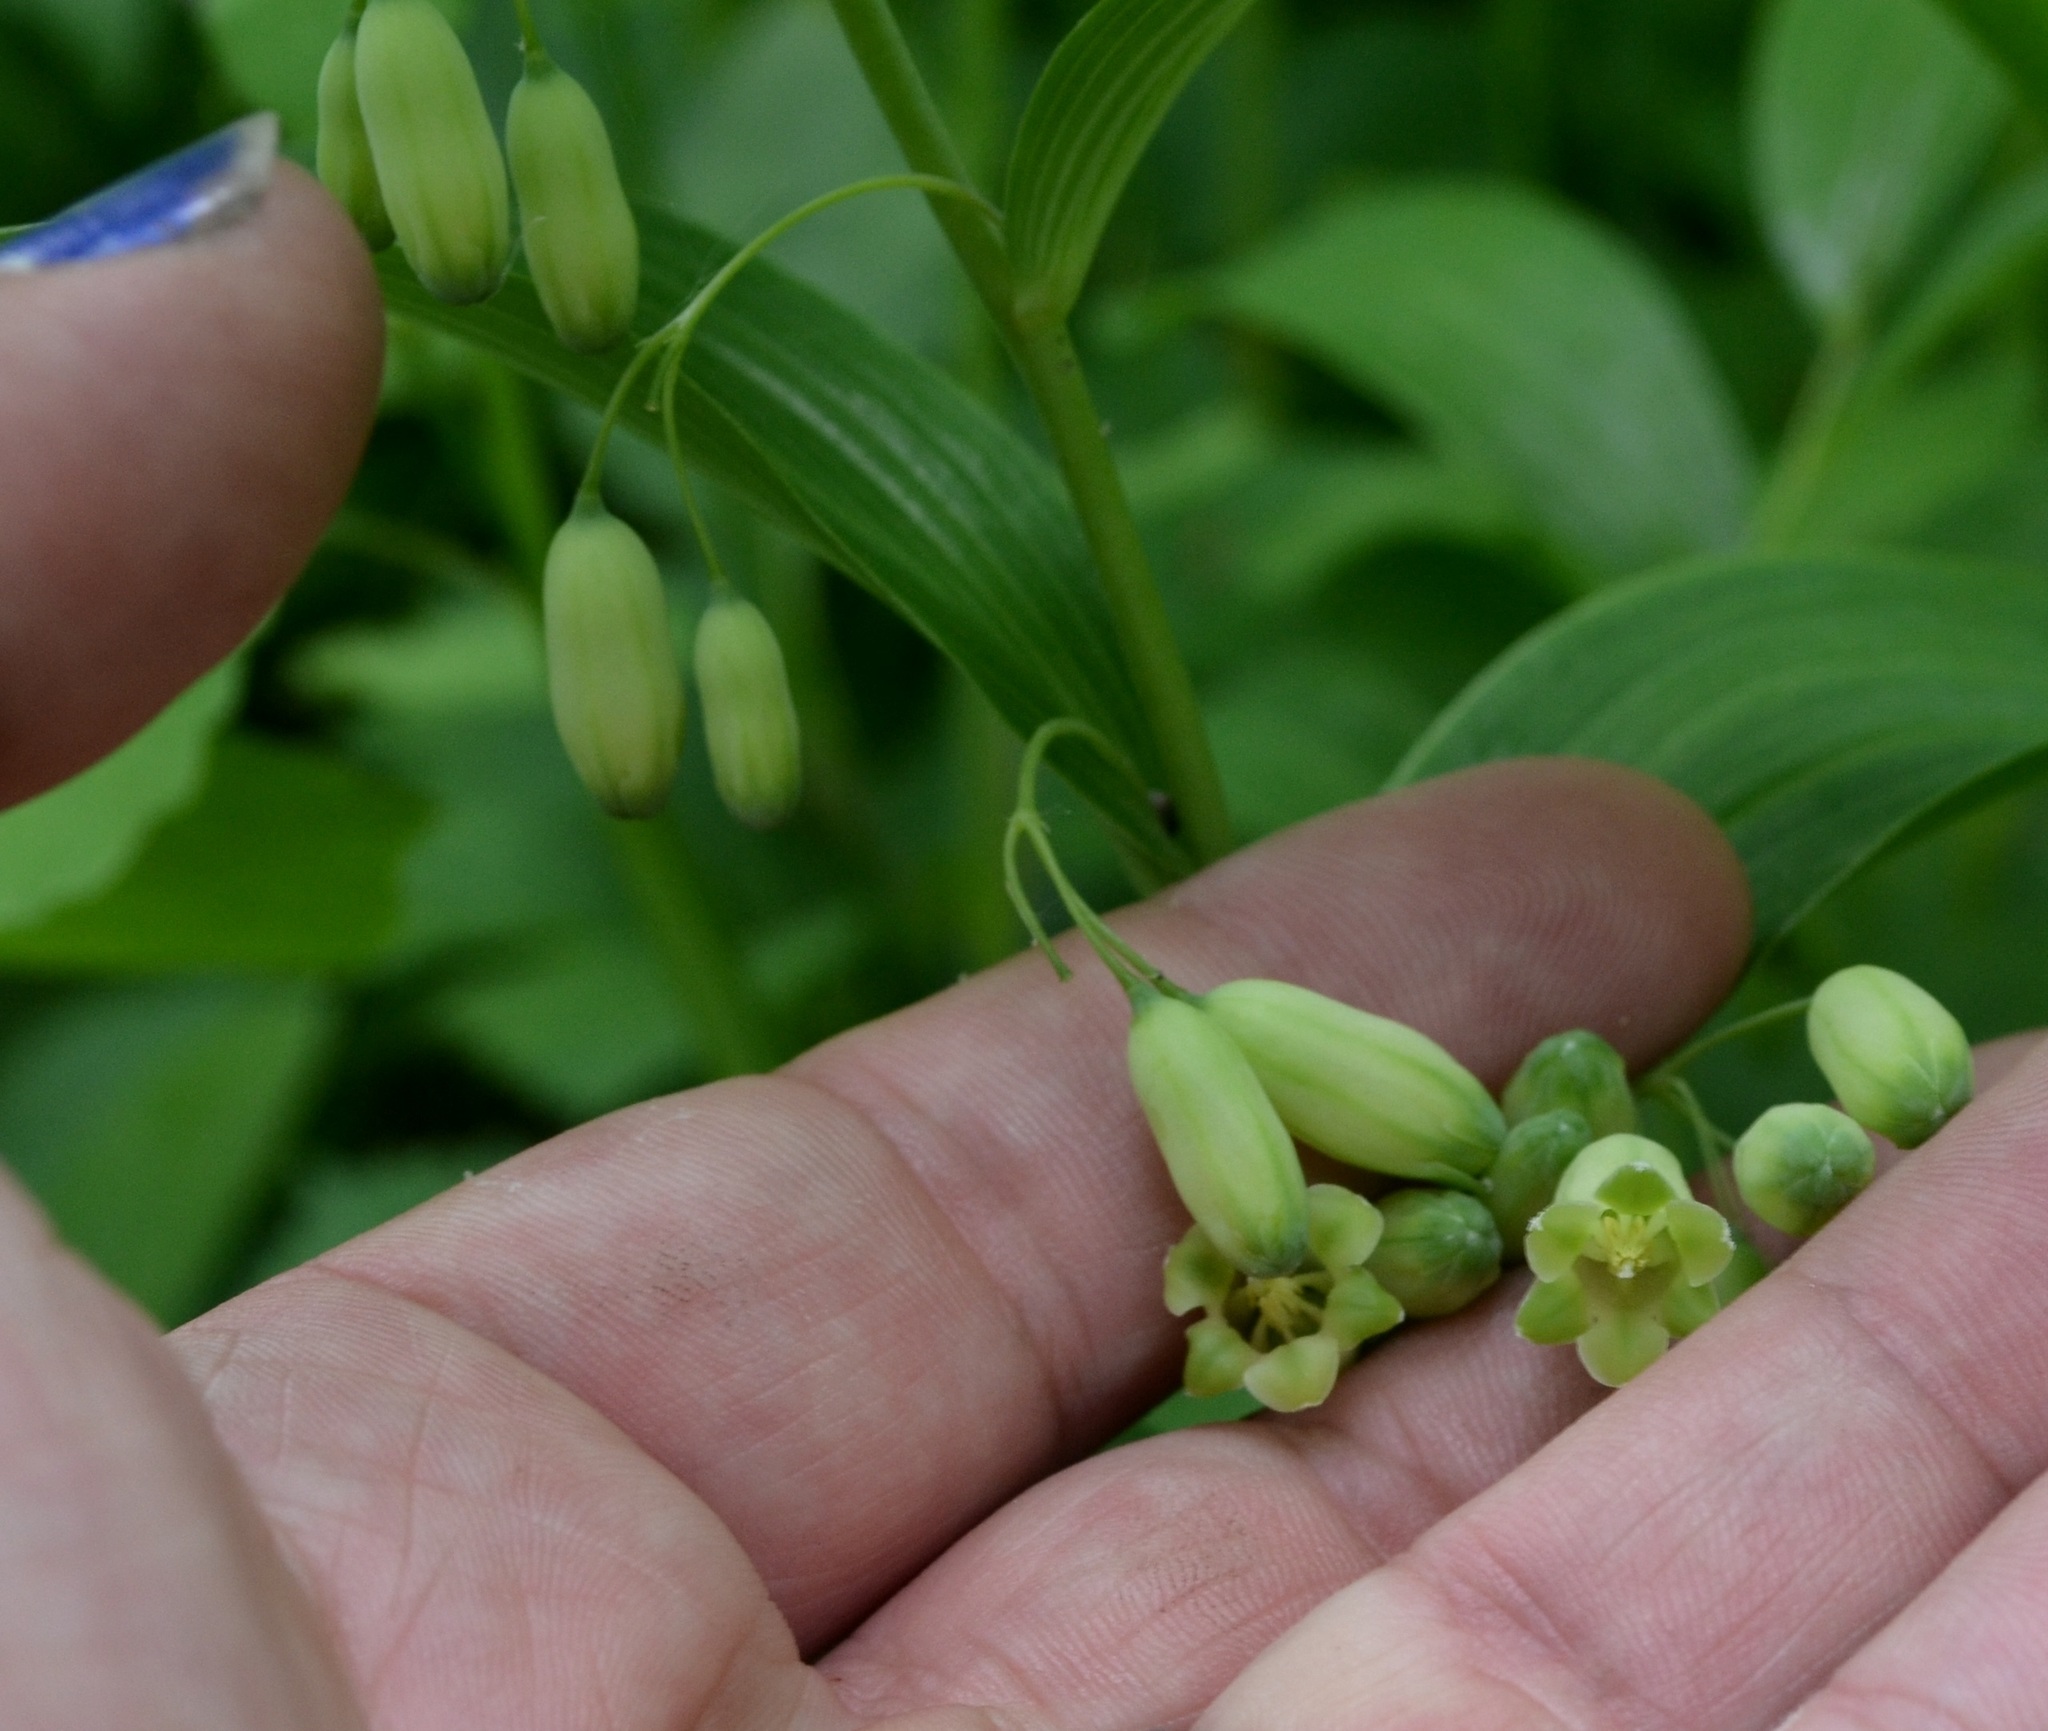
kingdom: Plantae
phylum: Tracheophyta
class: Liliopsida
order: Asparagales
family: Asparagaceae
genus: Polygonatum
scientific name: Polygonatum biflorum
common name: American solomon's-seal
